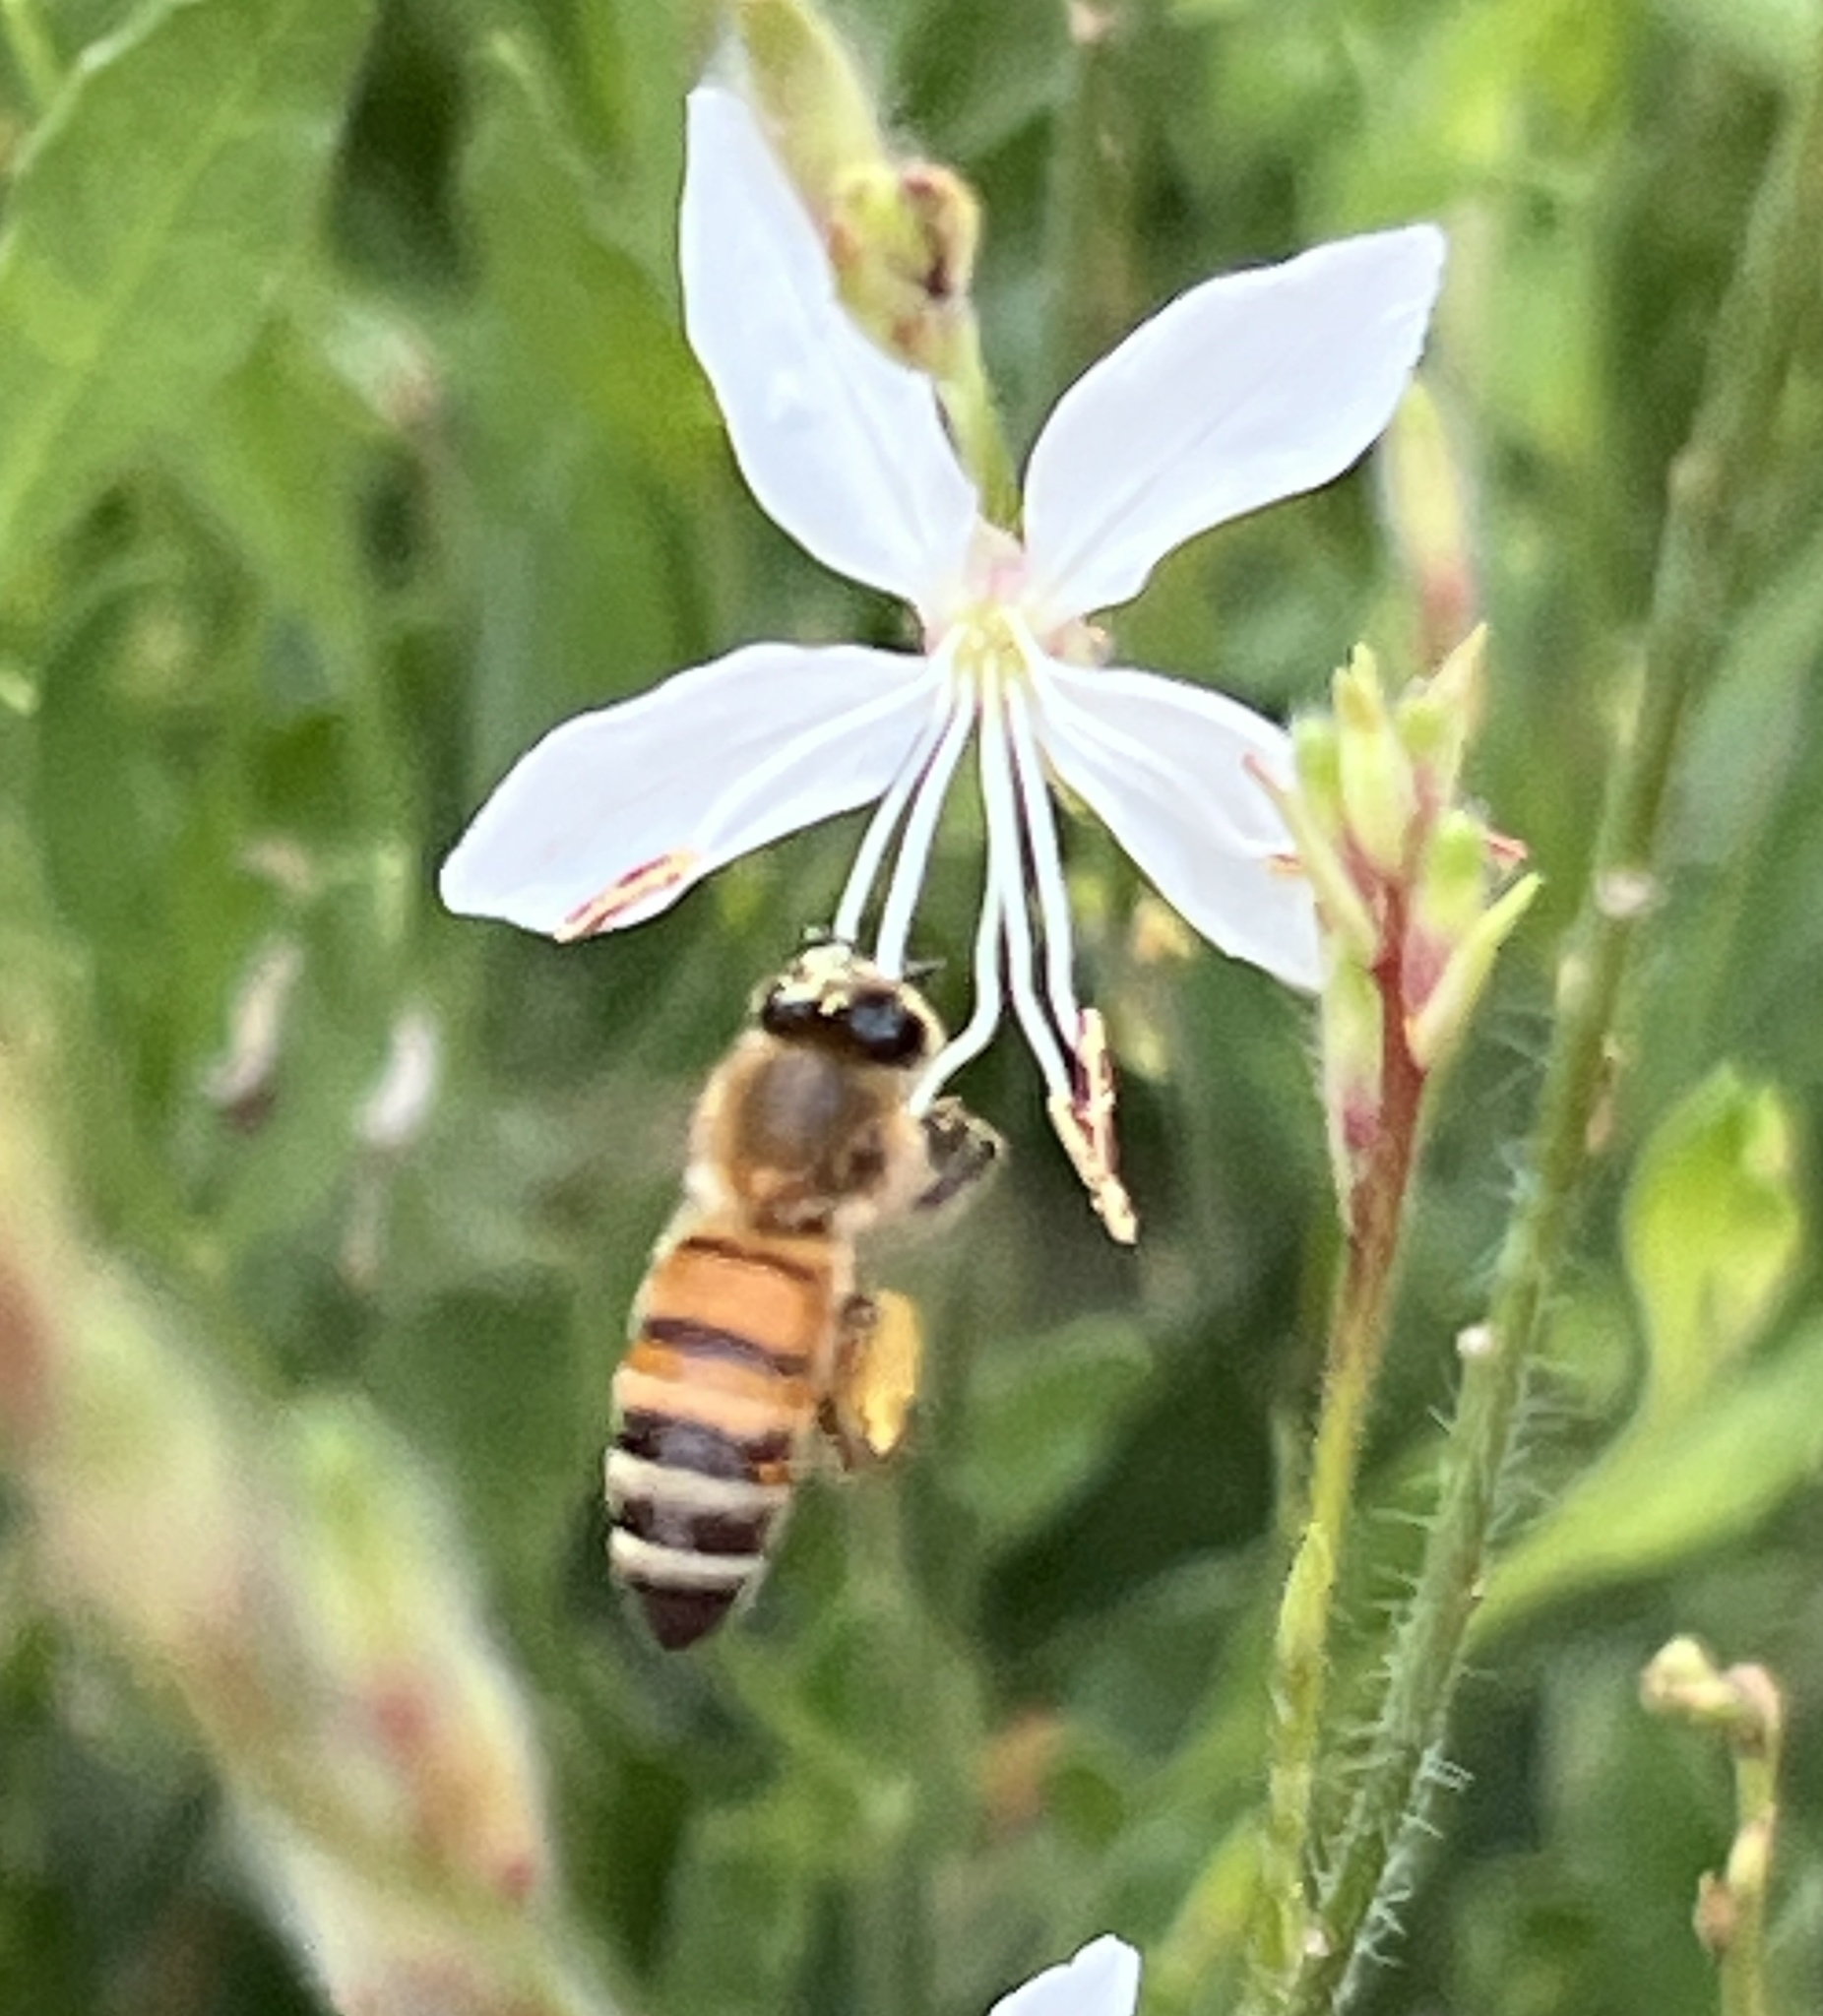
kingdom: Animalia
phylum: Arthropoda
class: Insecta
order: Hymenoptera
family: Apidae
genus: Apis
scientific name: Apis mellifera
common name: Honey bee
